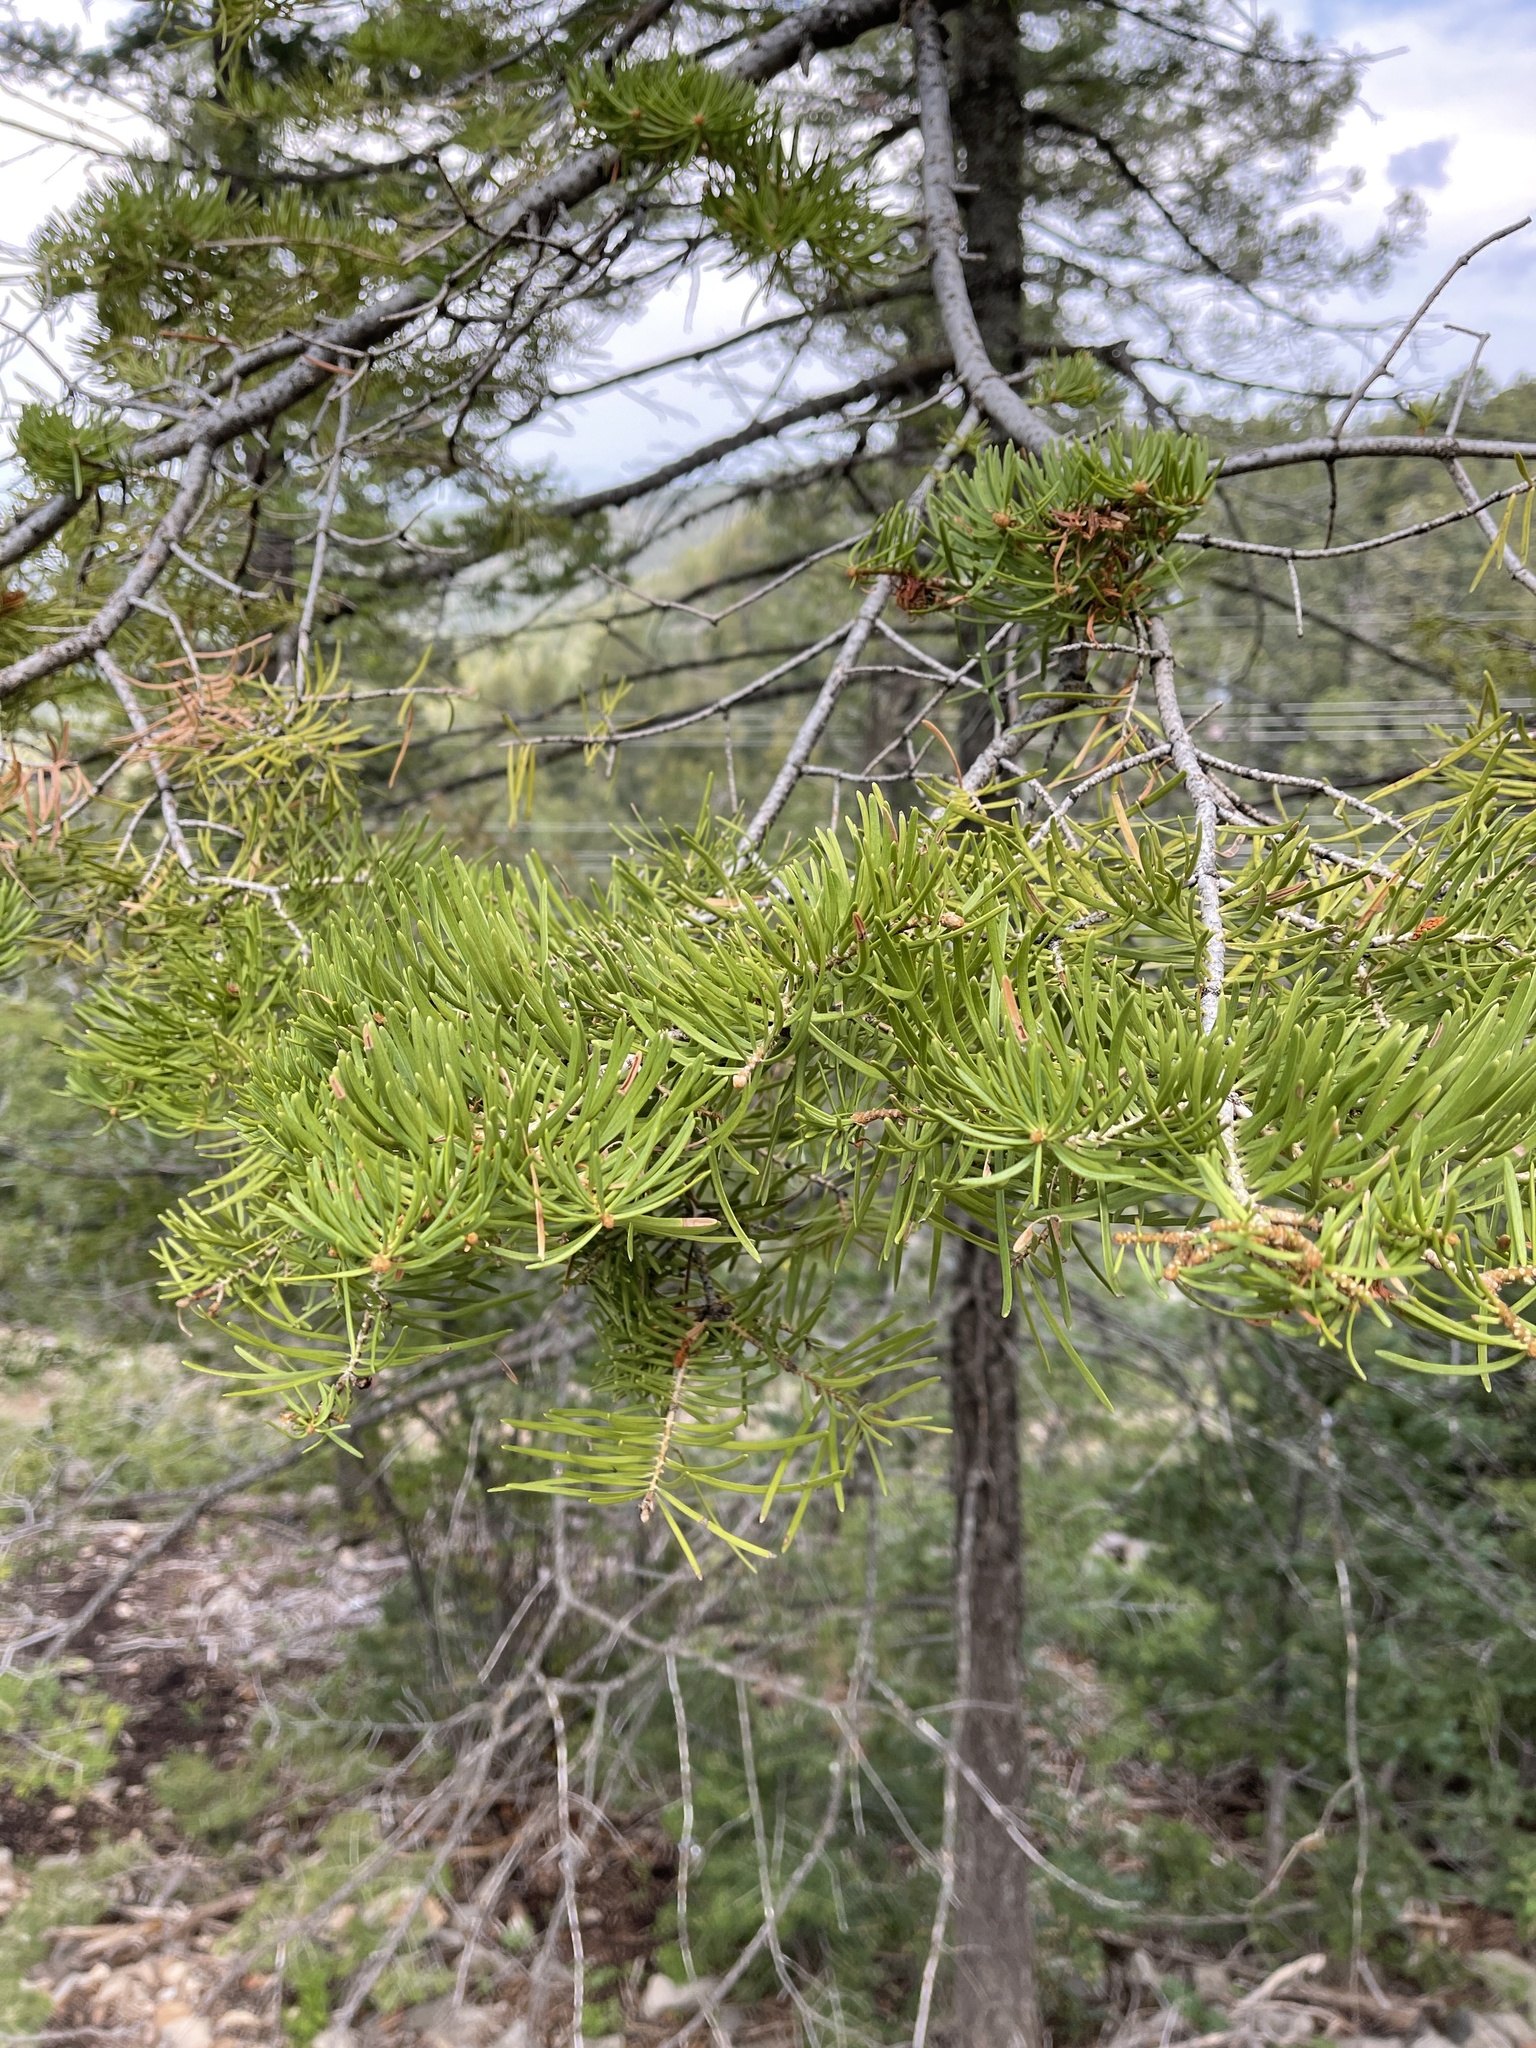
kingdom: Plantae
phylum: Tracheophyta
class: Pinopsida
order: Pinales
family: Pinaceae
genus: Abies
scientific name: Abies concolor
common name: Colorado fir
